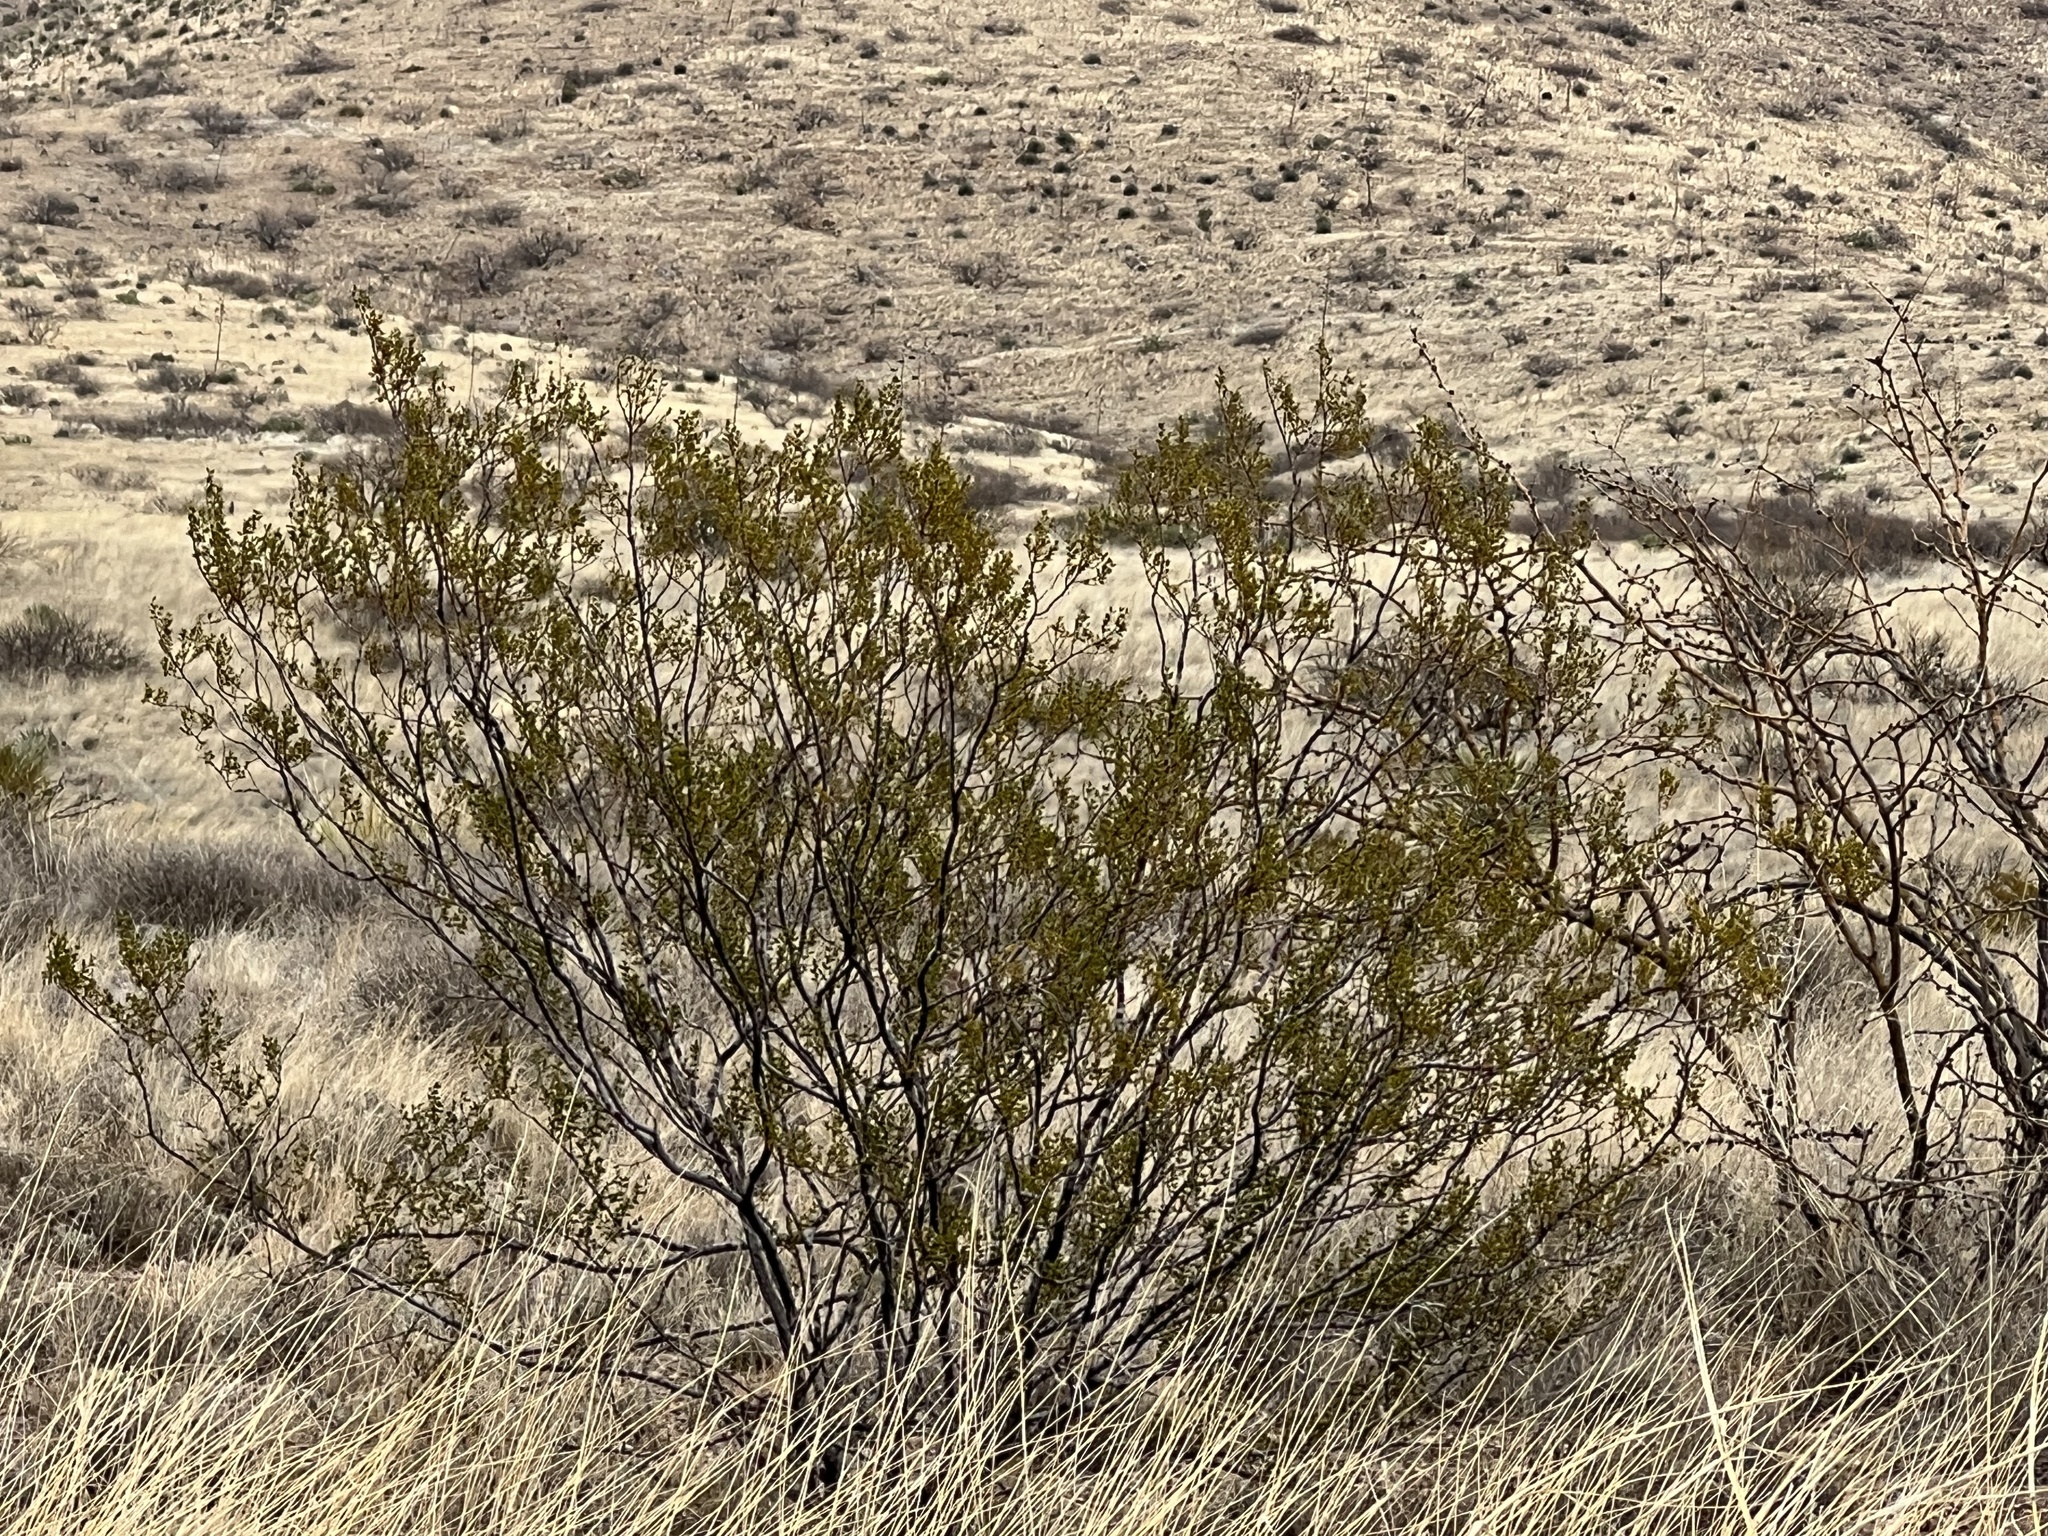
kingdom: Plantae
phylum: Tracheophyta
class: Magnoliopsida
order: Zygophyllales
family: Zygophyllaceae
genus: Larrea
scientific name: Larrea tridentata
